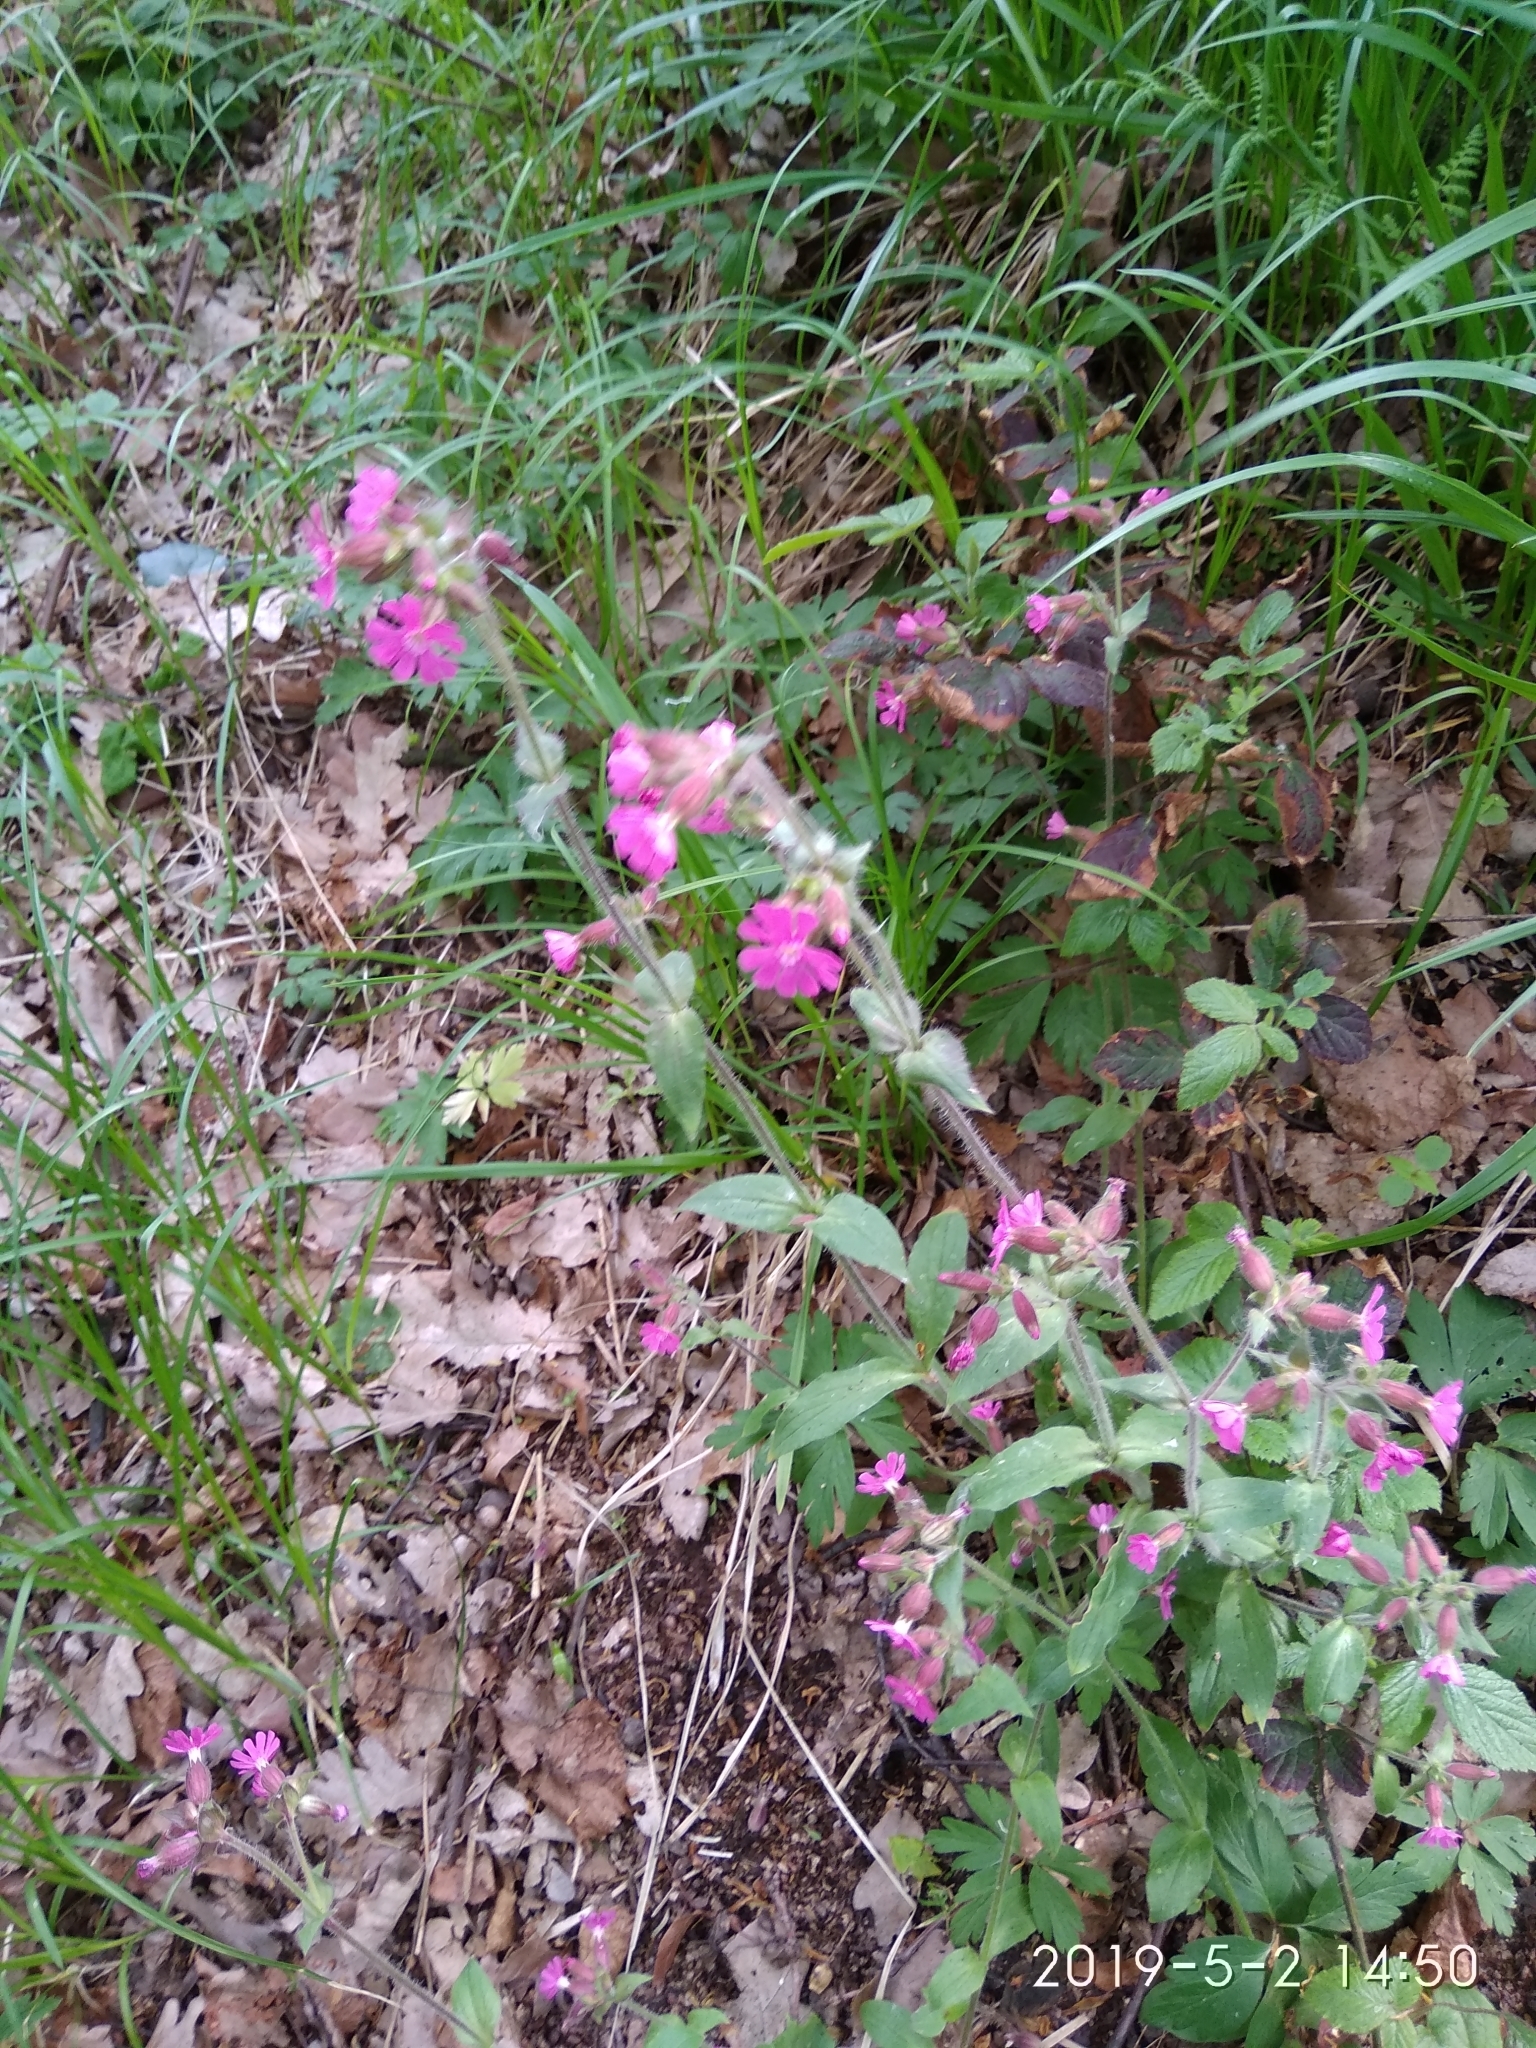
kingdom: Plantae
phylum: Tracheophyta
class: Magnoliopsida
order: Caryophyllales
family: Caryophyllaceae
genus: Silene
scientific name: Silene dioica
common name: Red campion
